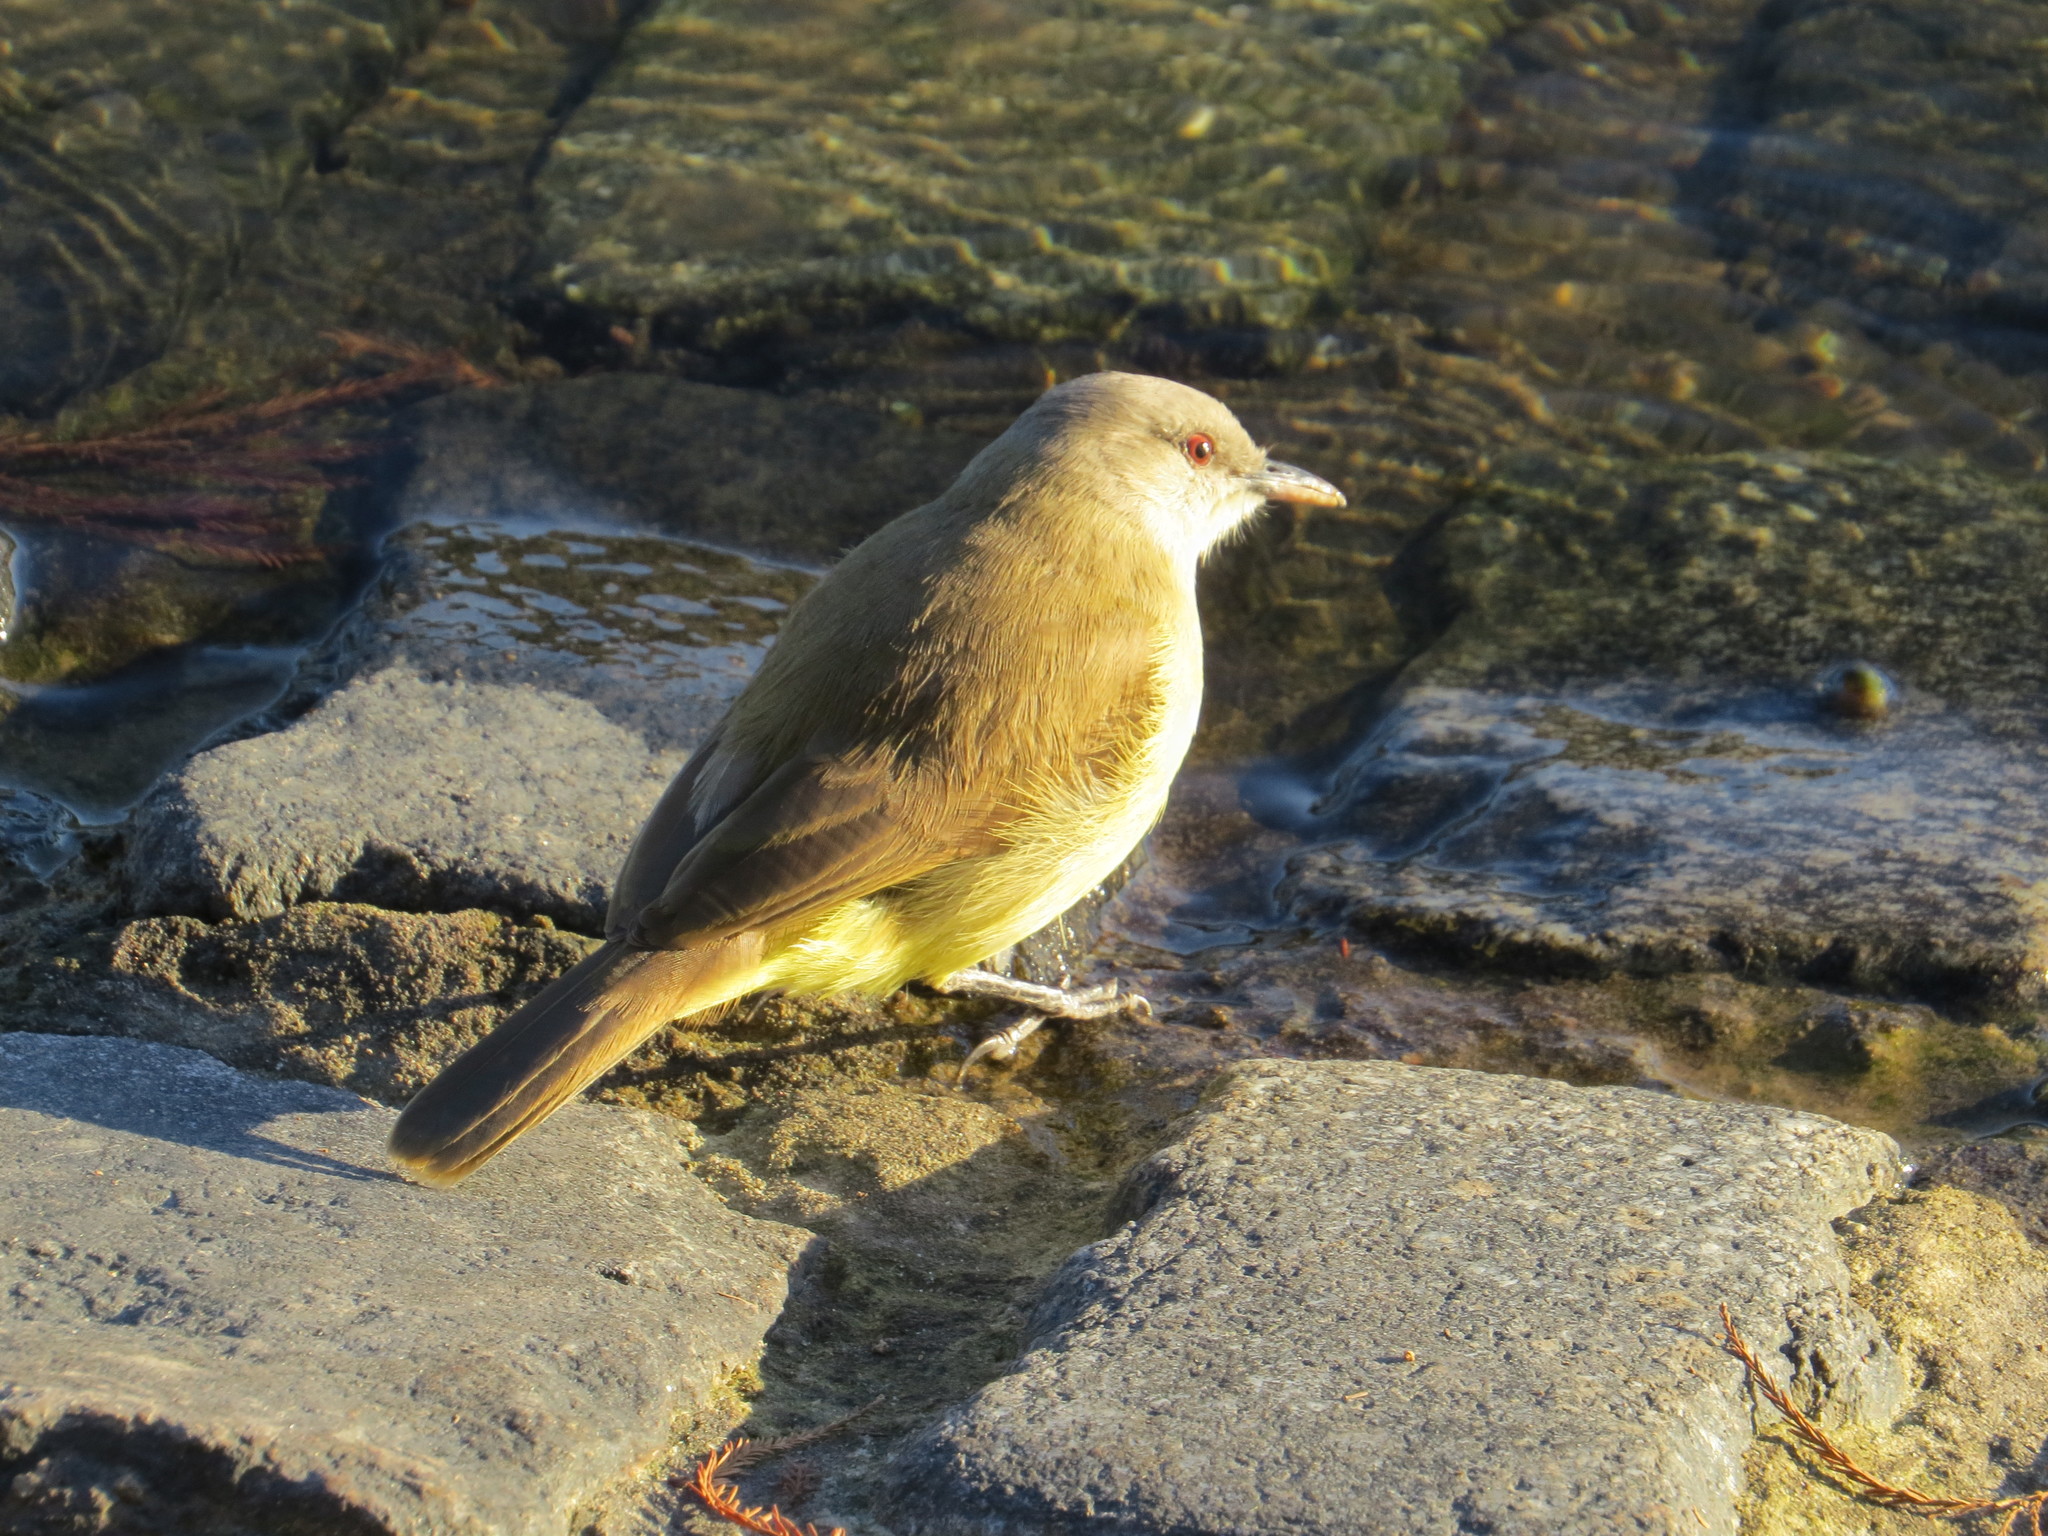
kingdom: Animalia
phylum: Chordata
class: Aves
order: Passeriformes
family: Tyrannidae
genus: Machetornis
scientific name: Machetornis rixosa
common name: Cattle tyrant
